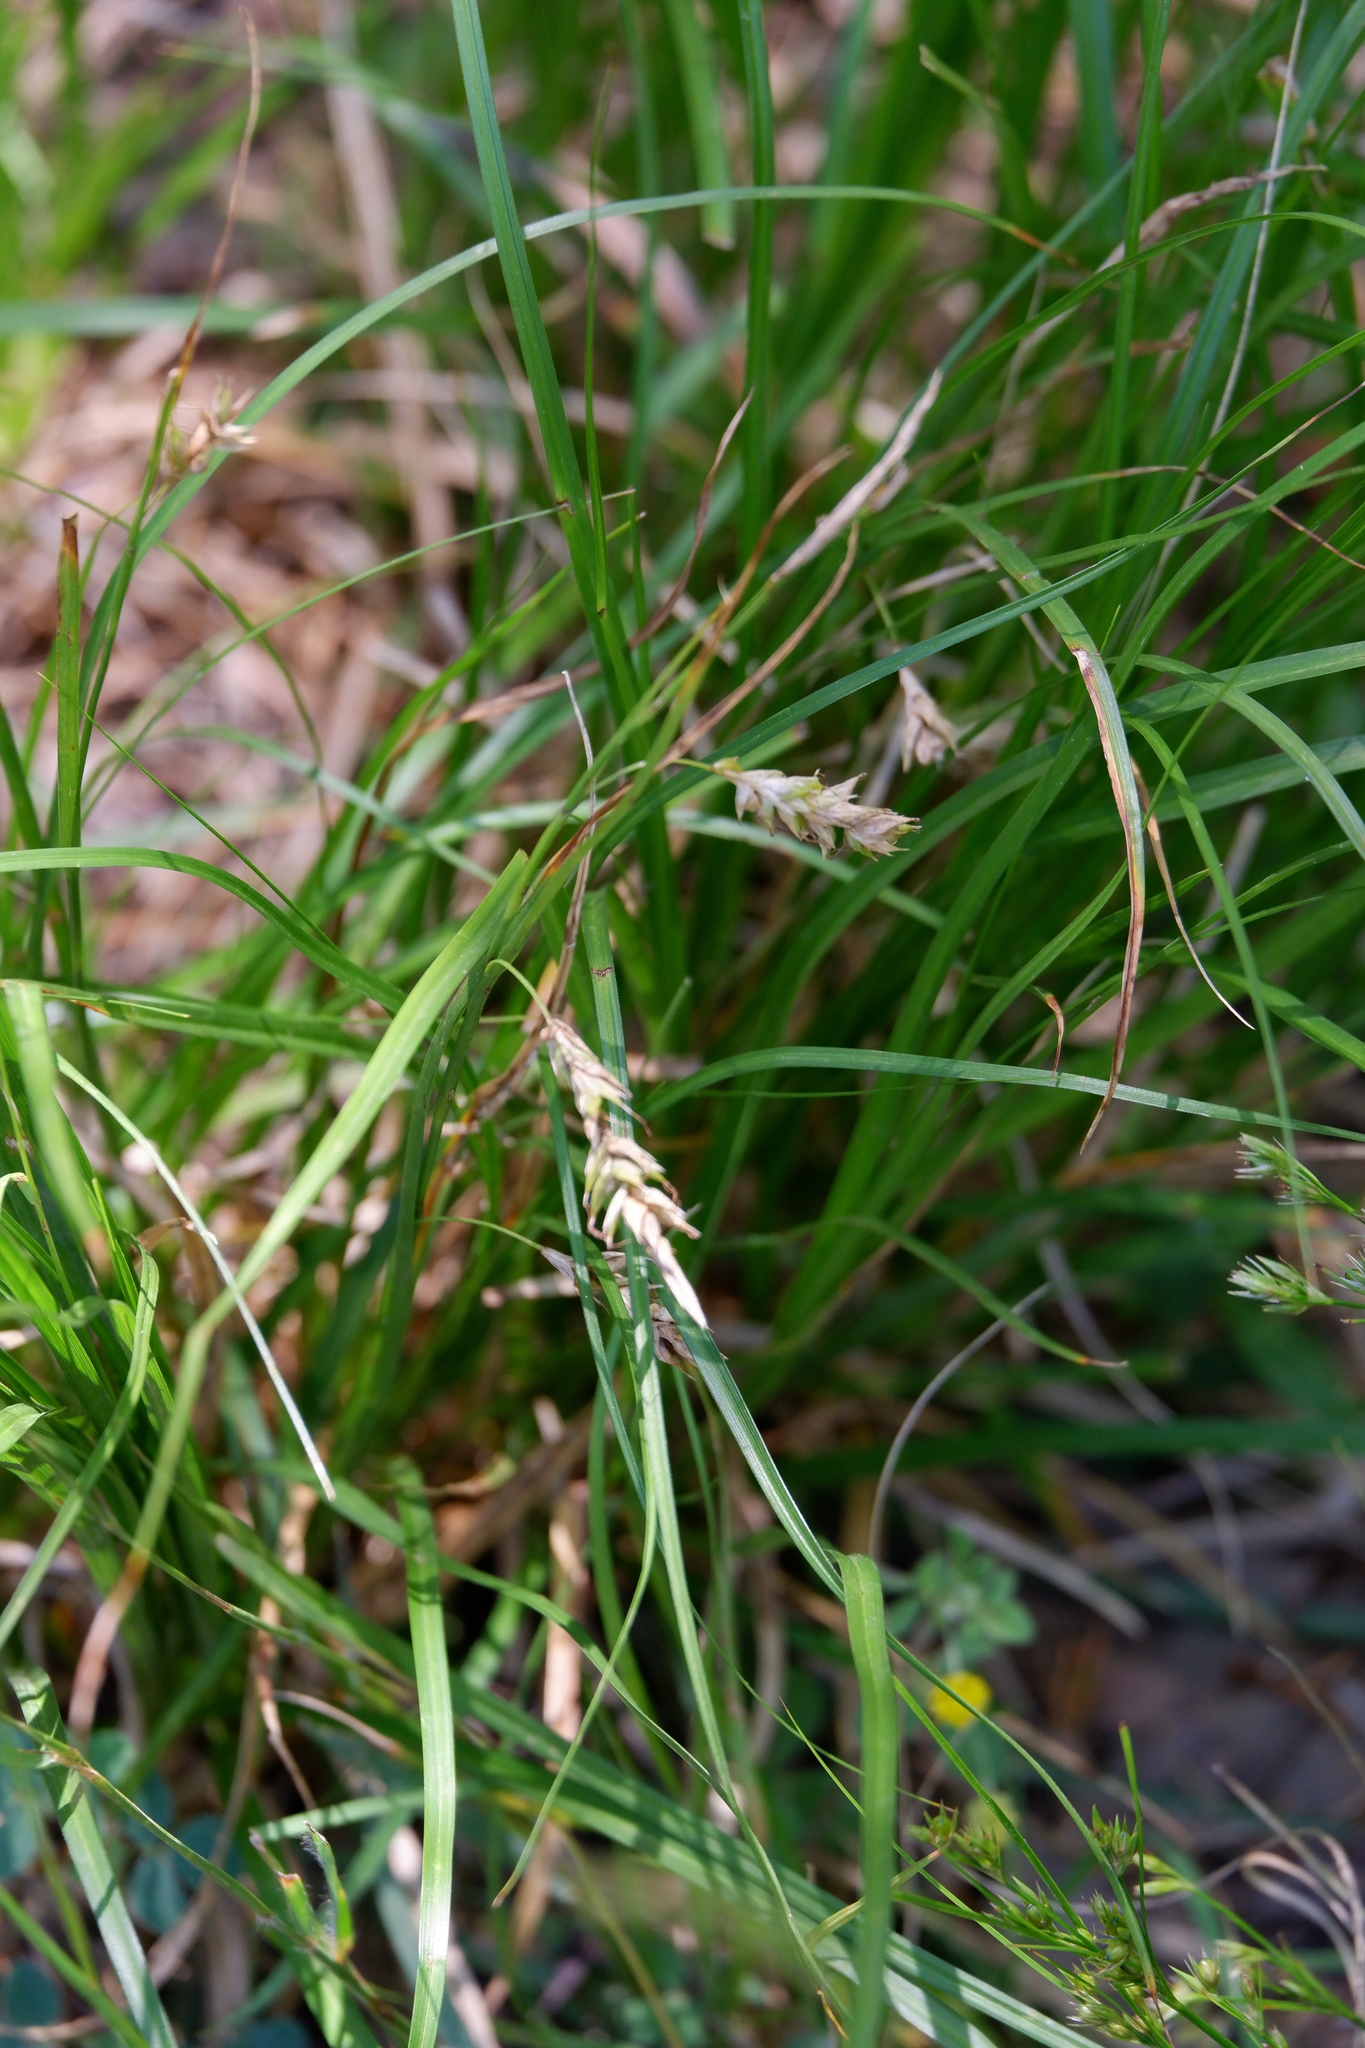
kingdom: Plantae
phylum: Tracheophyta
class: Liliopsida
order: Poales
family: Cyperaceae
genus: Carex
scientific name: Carex cherokeensis
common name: Cherokee sedge
